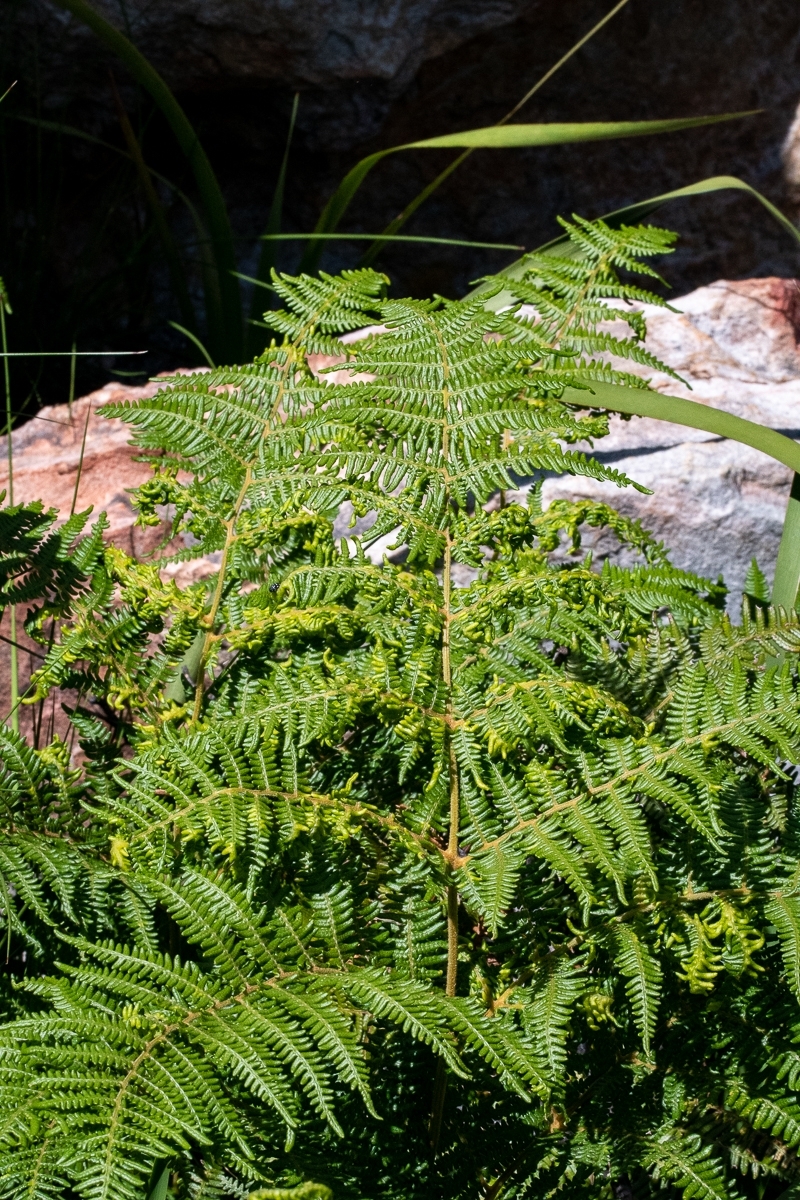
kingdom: Plantae
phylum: Tracheophyta
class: Polypodiopsida
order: Polypodiales
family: Dennstaedtiaceae
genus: Pteridium
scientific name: Pteridium aquilinum
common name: Bracken
